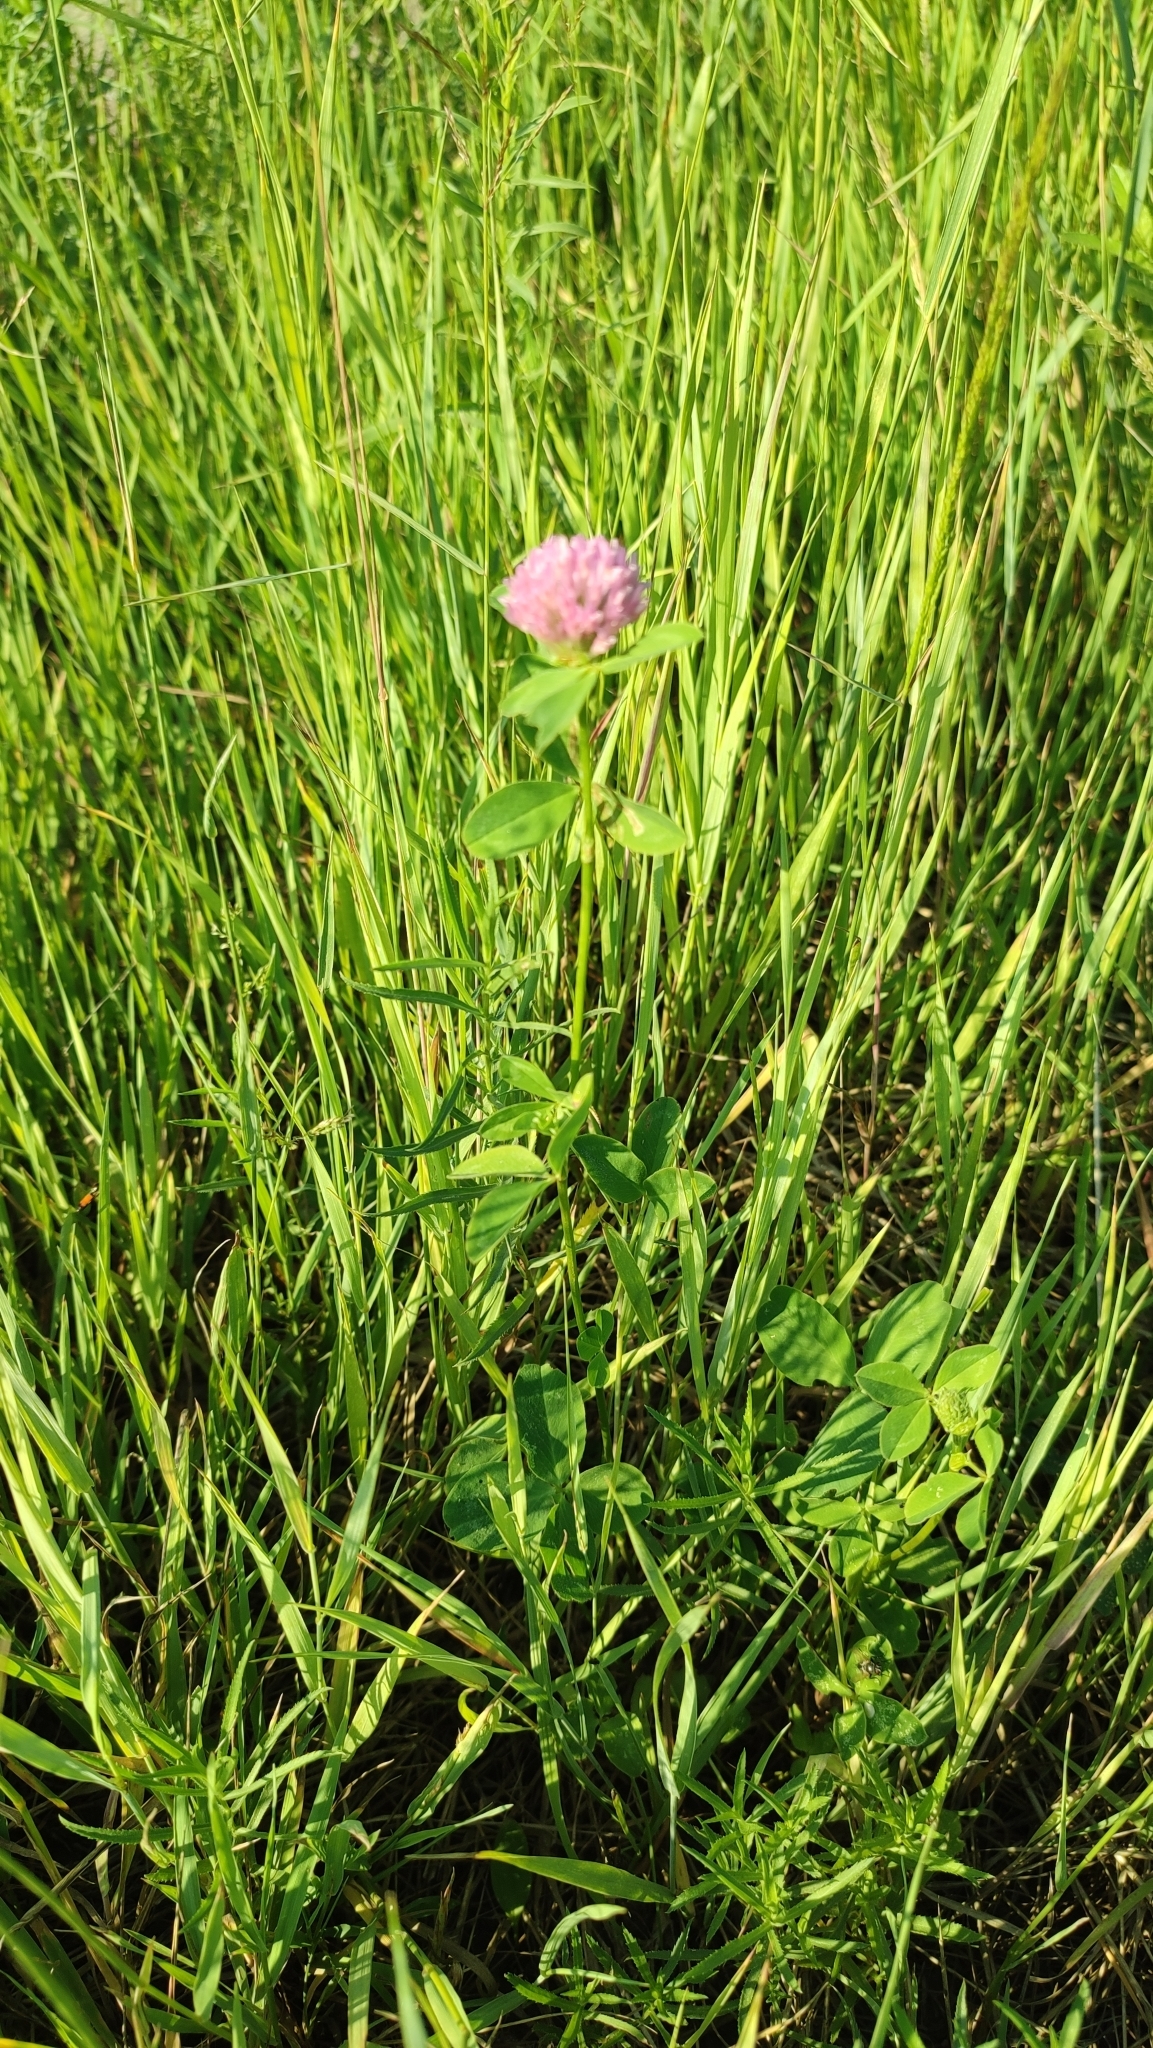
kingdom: Plantae
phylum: Tracheophyta
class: Magnoliopsida
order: Fabales
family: Fabaceae
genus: Trifolium
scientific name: Trifolium pratense
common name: Red clover
